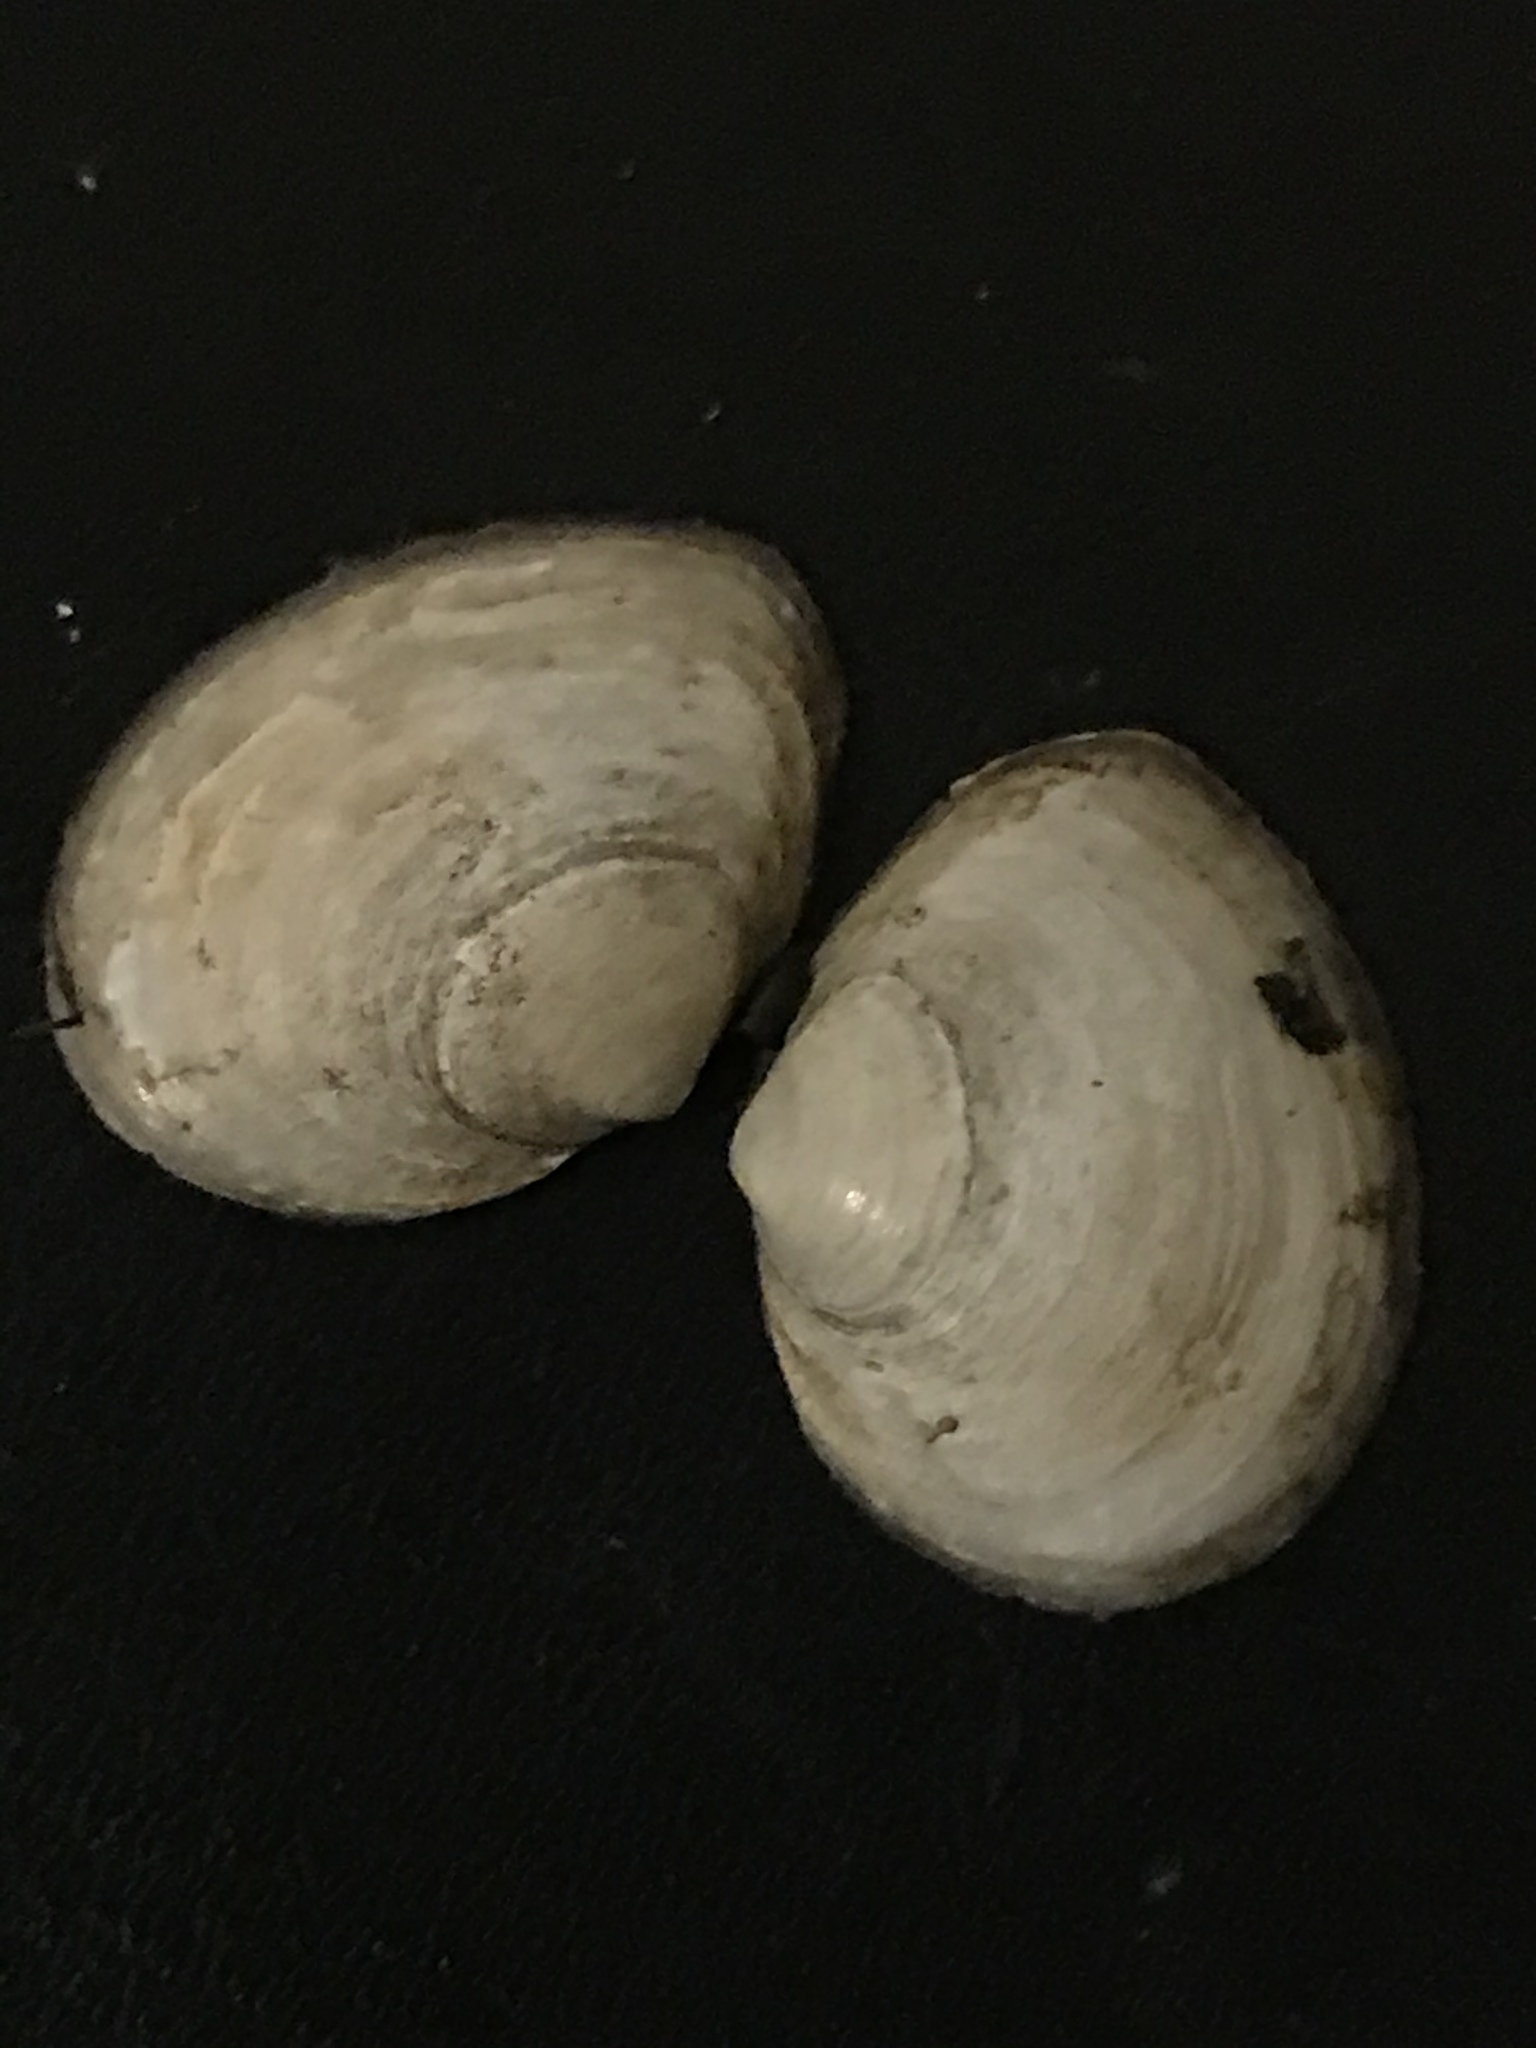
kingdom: Animalia
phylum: Mollusca
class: Bivalvia
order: Cardiida
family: Tellinidae
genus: Macoma
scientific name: Macoma petalum
